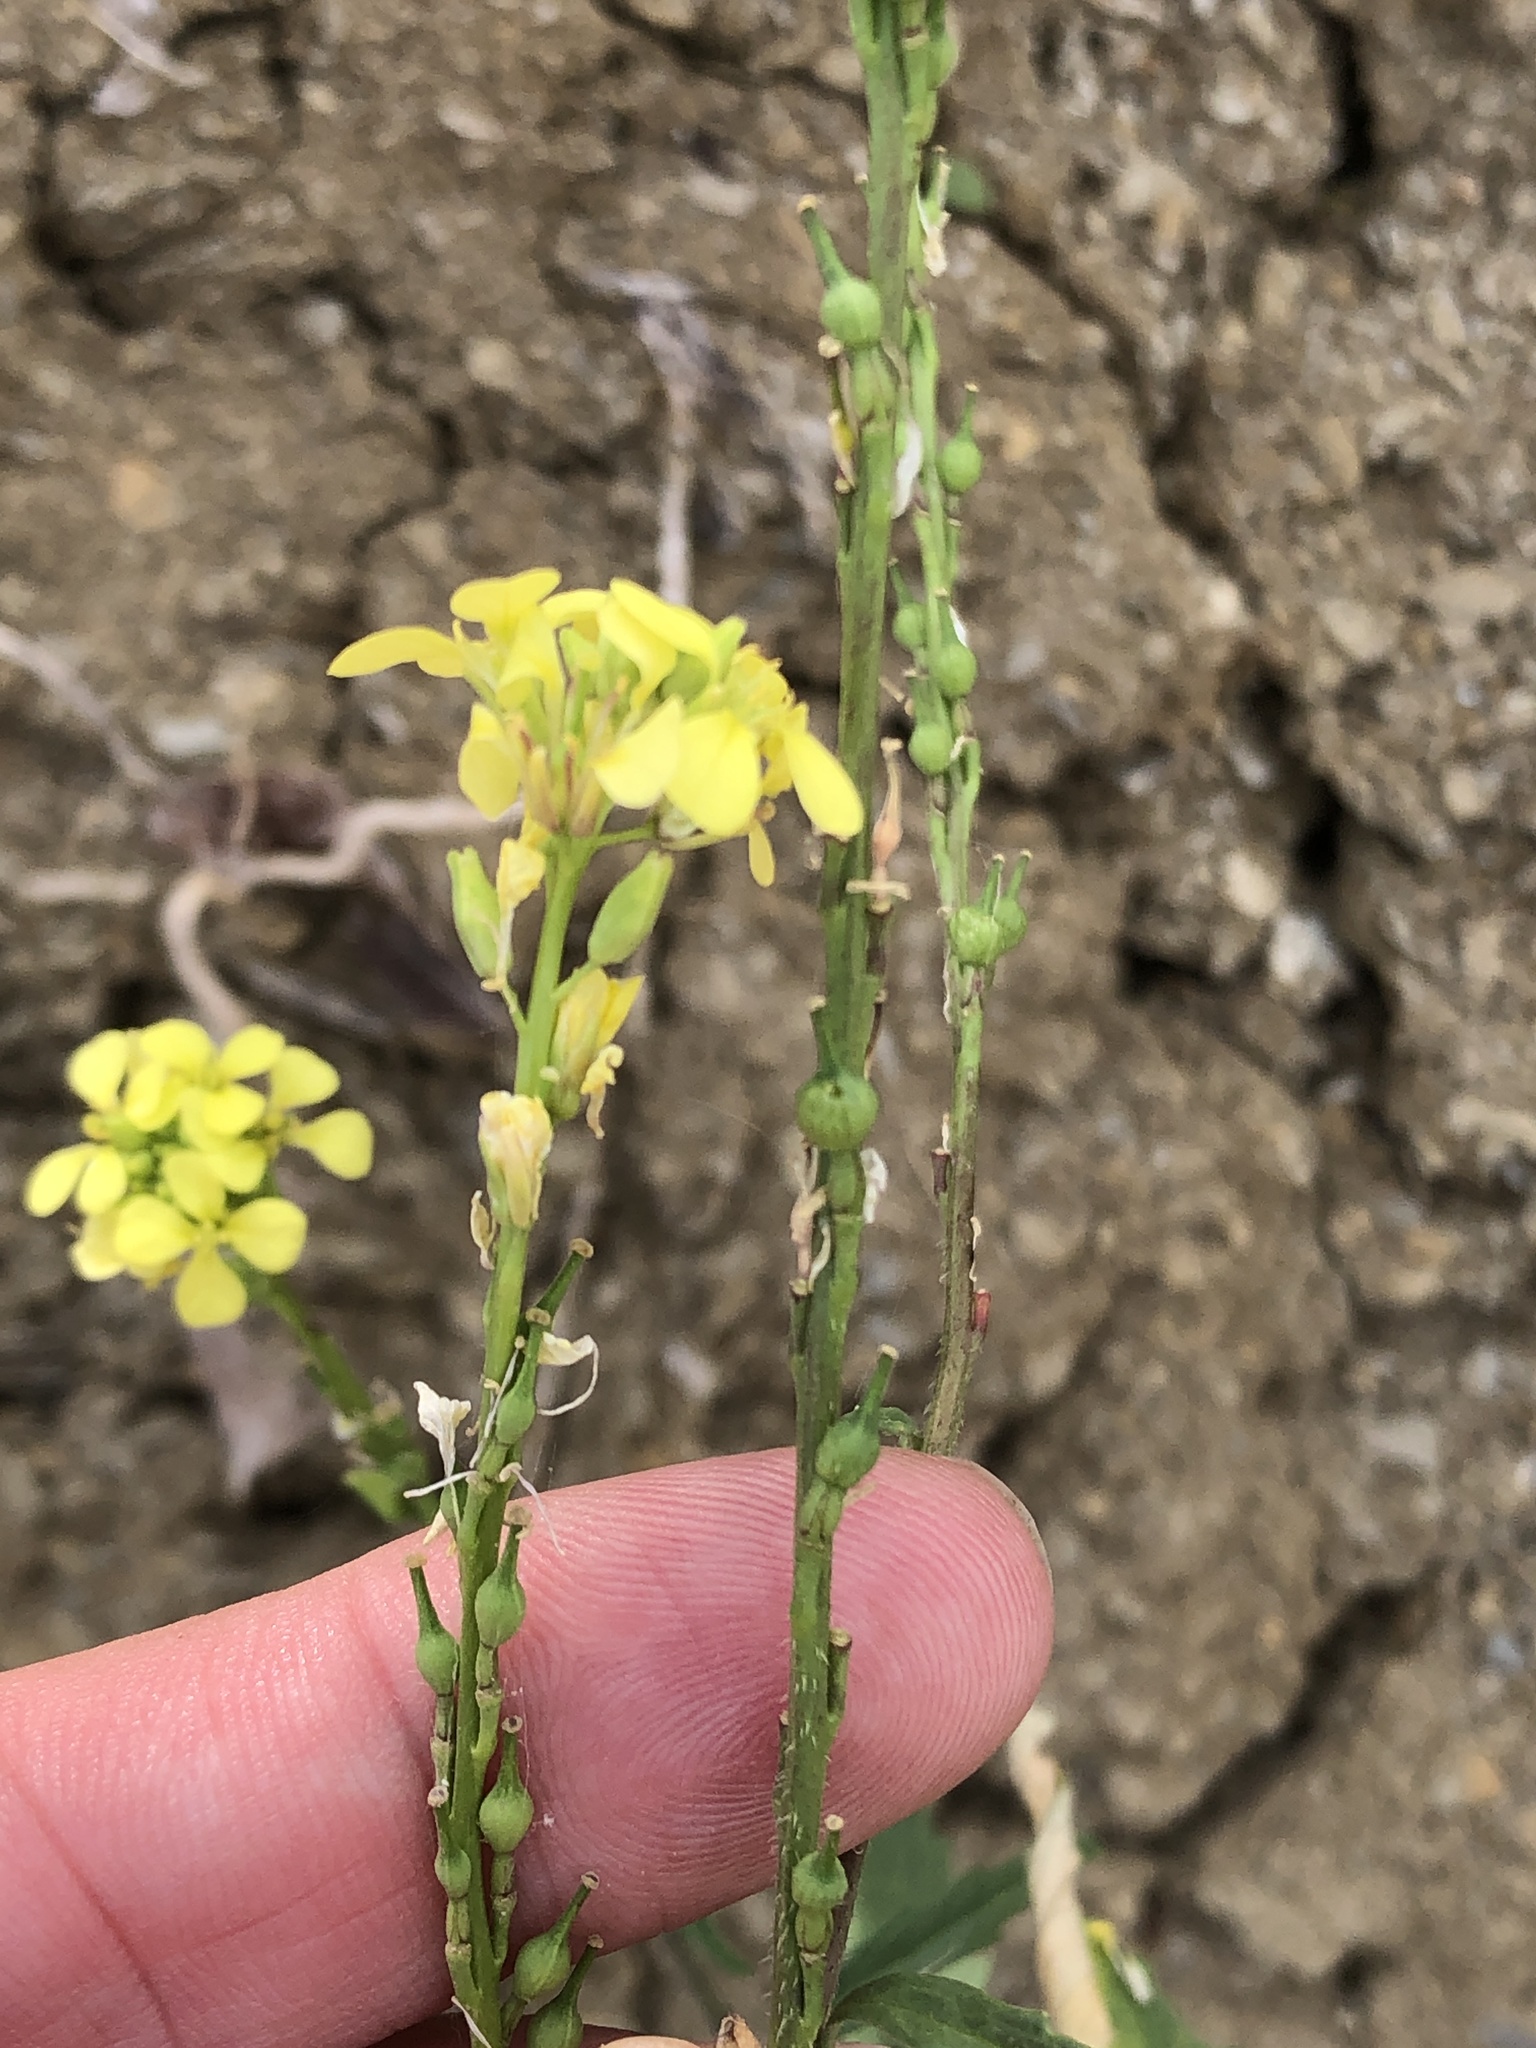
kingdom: Plantae
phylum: Tracheophyta
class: Magnoliopsida
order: Brassicales
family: Brassicaceae
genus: Rapistrum
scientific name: Rapistrum rugosum
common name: Annual bastardcabbage
